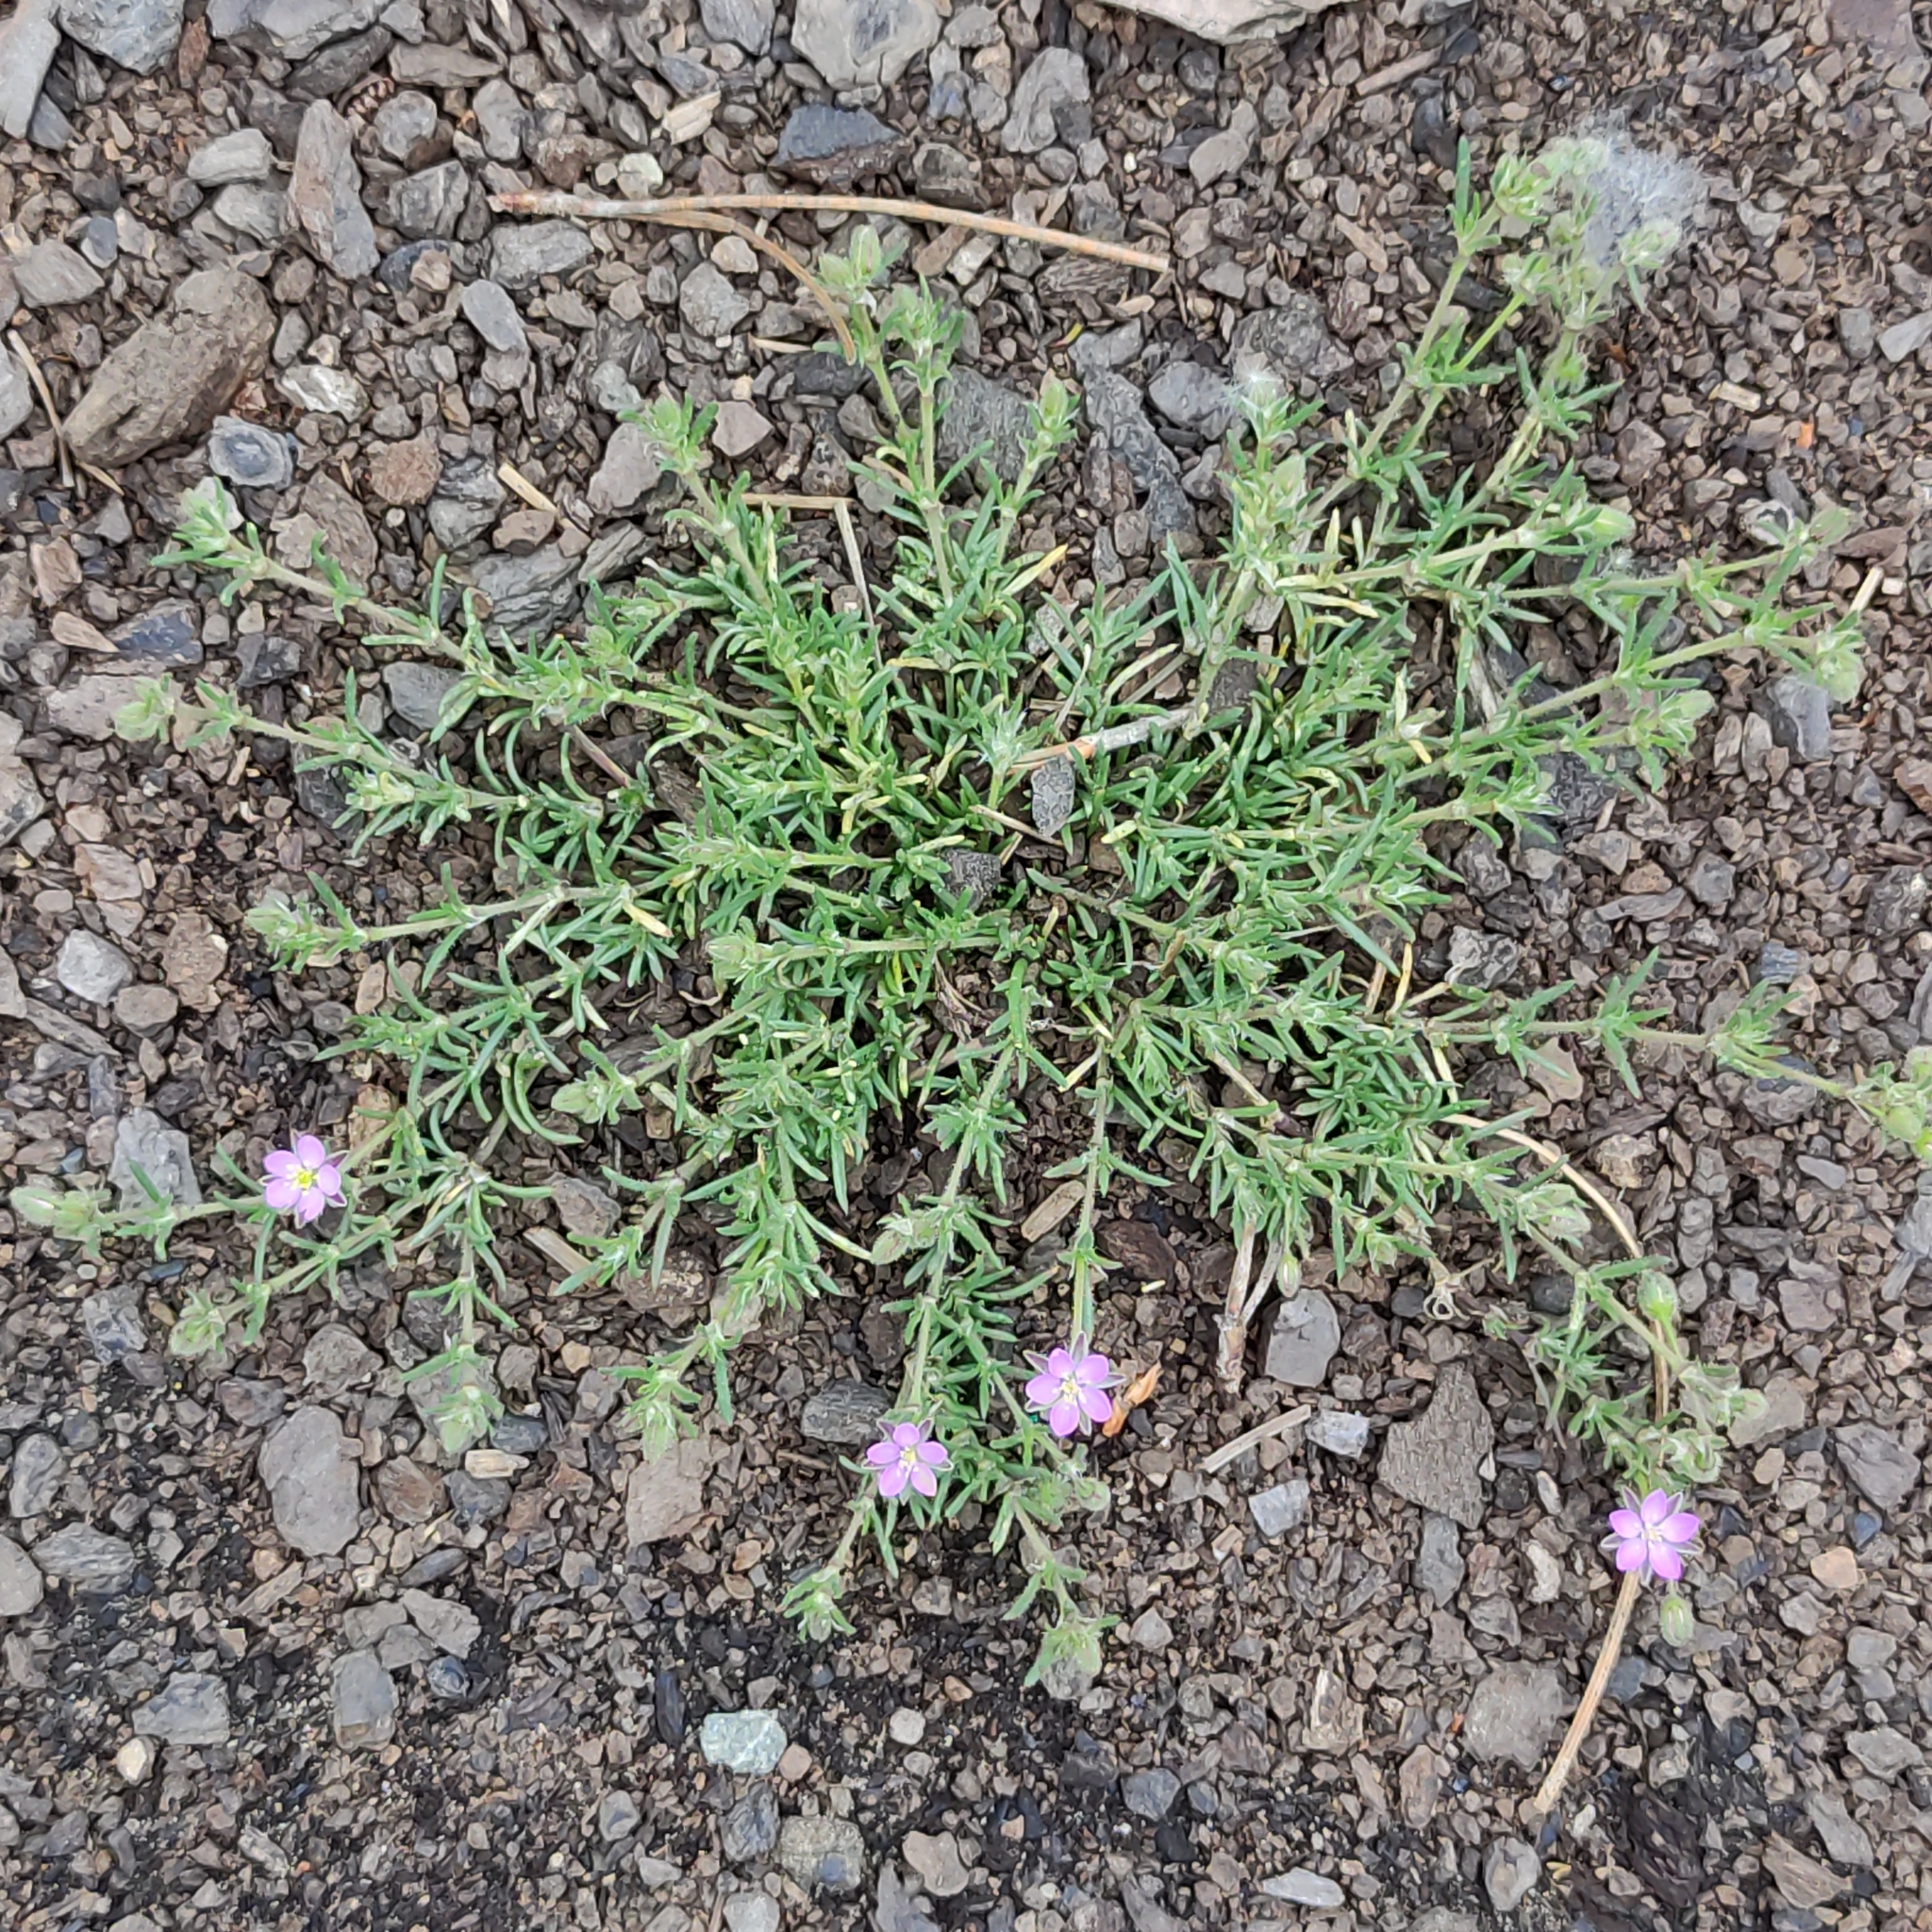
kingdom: Plantae
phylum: Tracheophyta
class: Magnoliopsida
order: Caryophyllales
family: Caryophyllaceae
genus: Spergularia
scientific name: Spergularia rubra
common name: Red sand-spurrey
